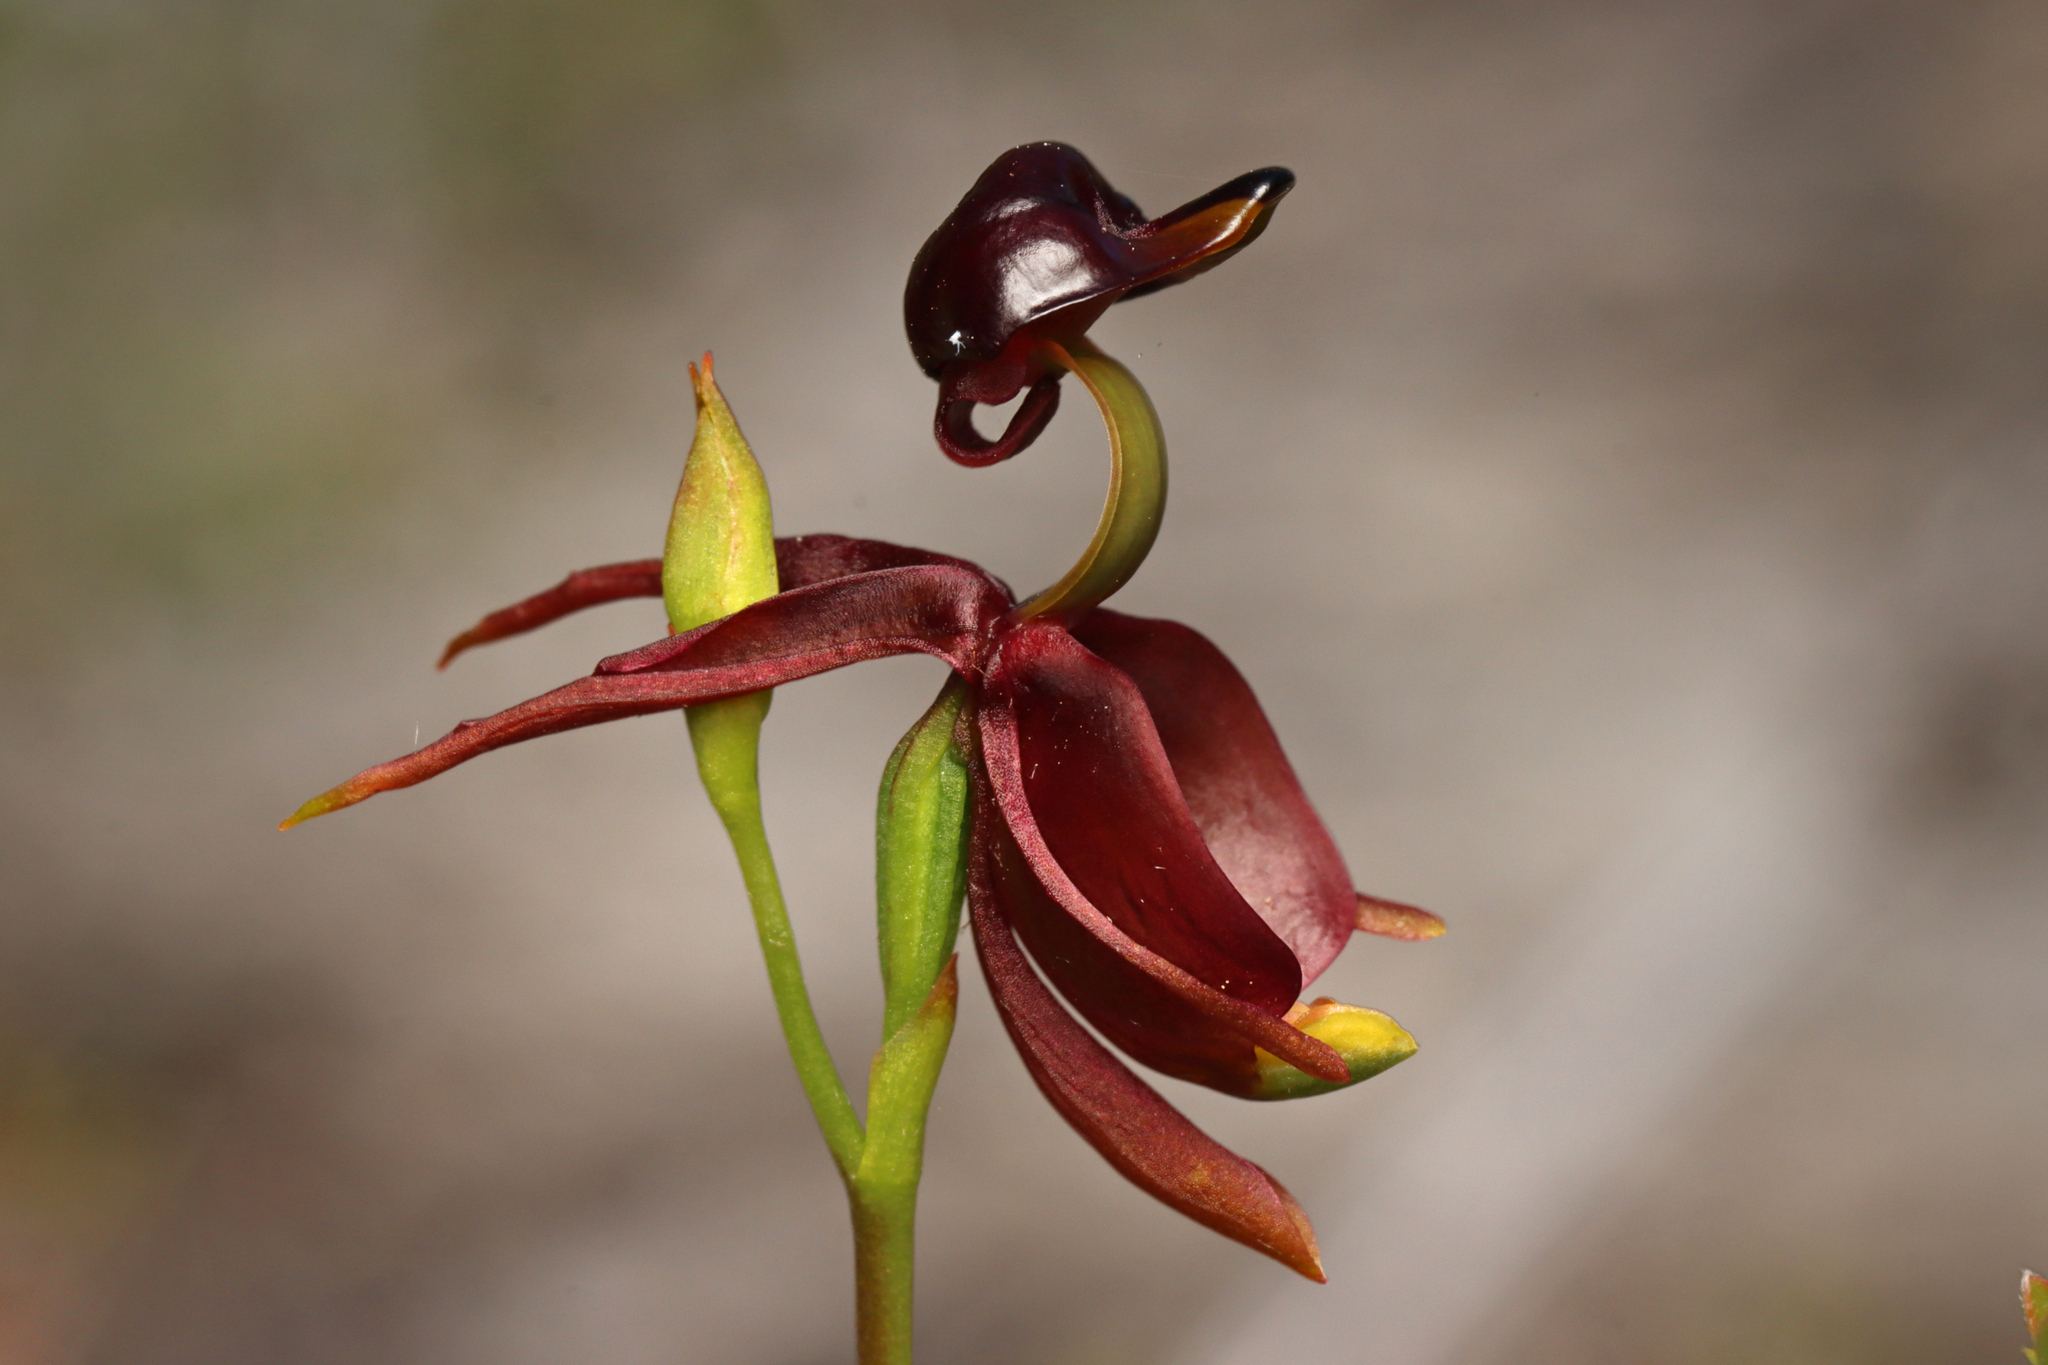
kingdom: Plantae
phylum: Tracheophyta
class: Liliopsida
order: Asparagales
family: Orchidaceae
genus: Caleana
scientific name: Caleana major
